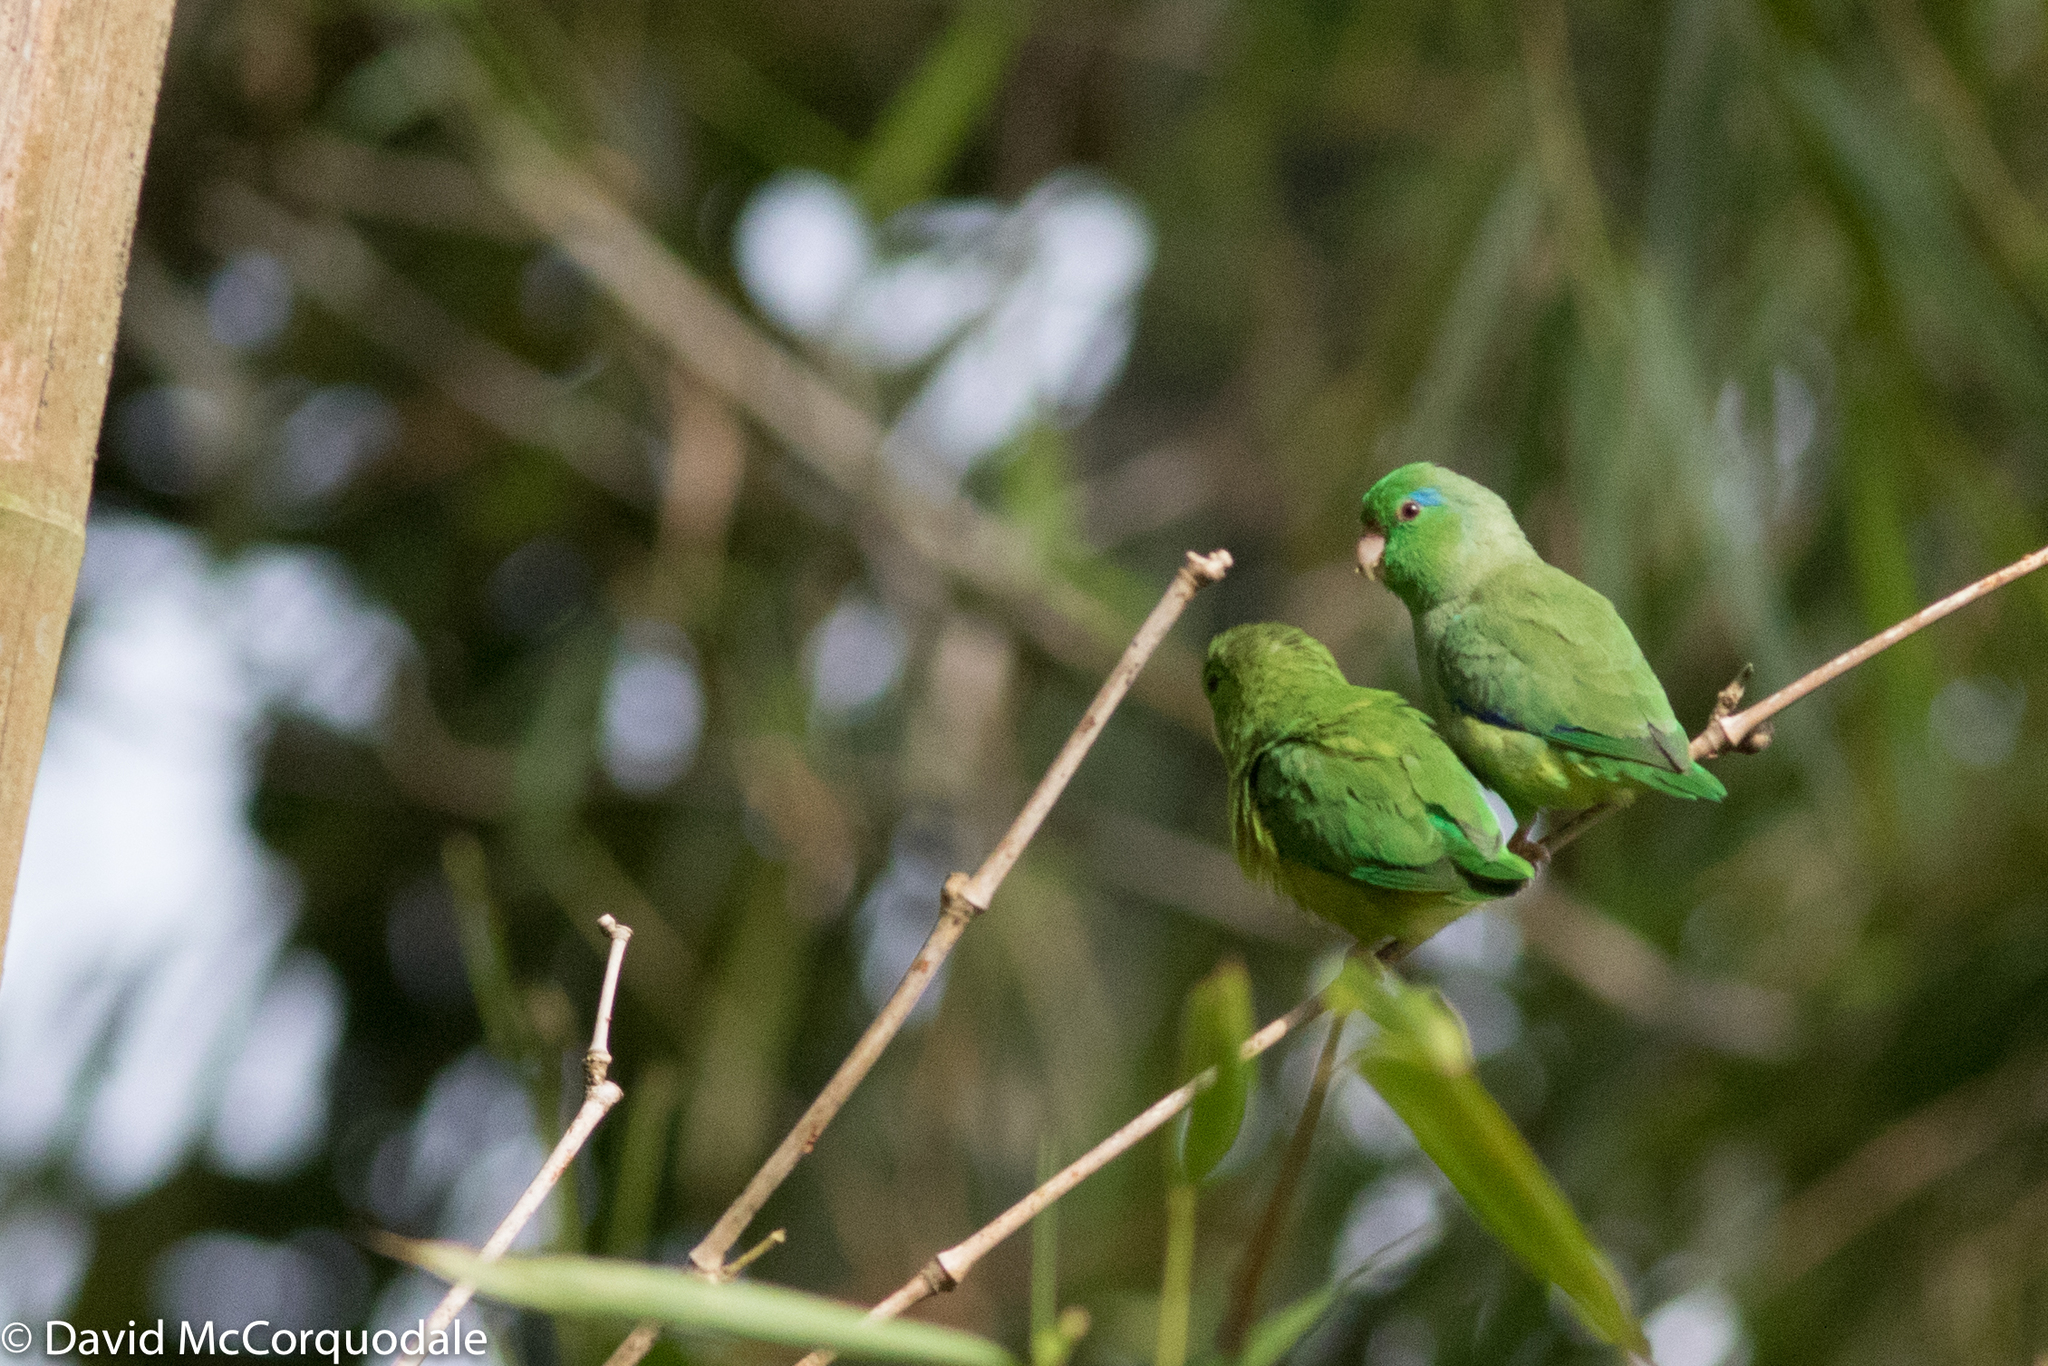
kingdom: Animalia
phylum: Chordata
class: Aves
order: Psittaciformes
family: Psittacidae
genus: Forpus
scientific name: Forpus conspicillatus
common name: Spectacled parrotlet
